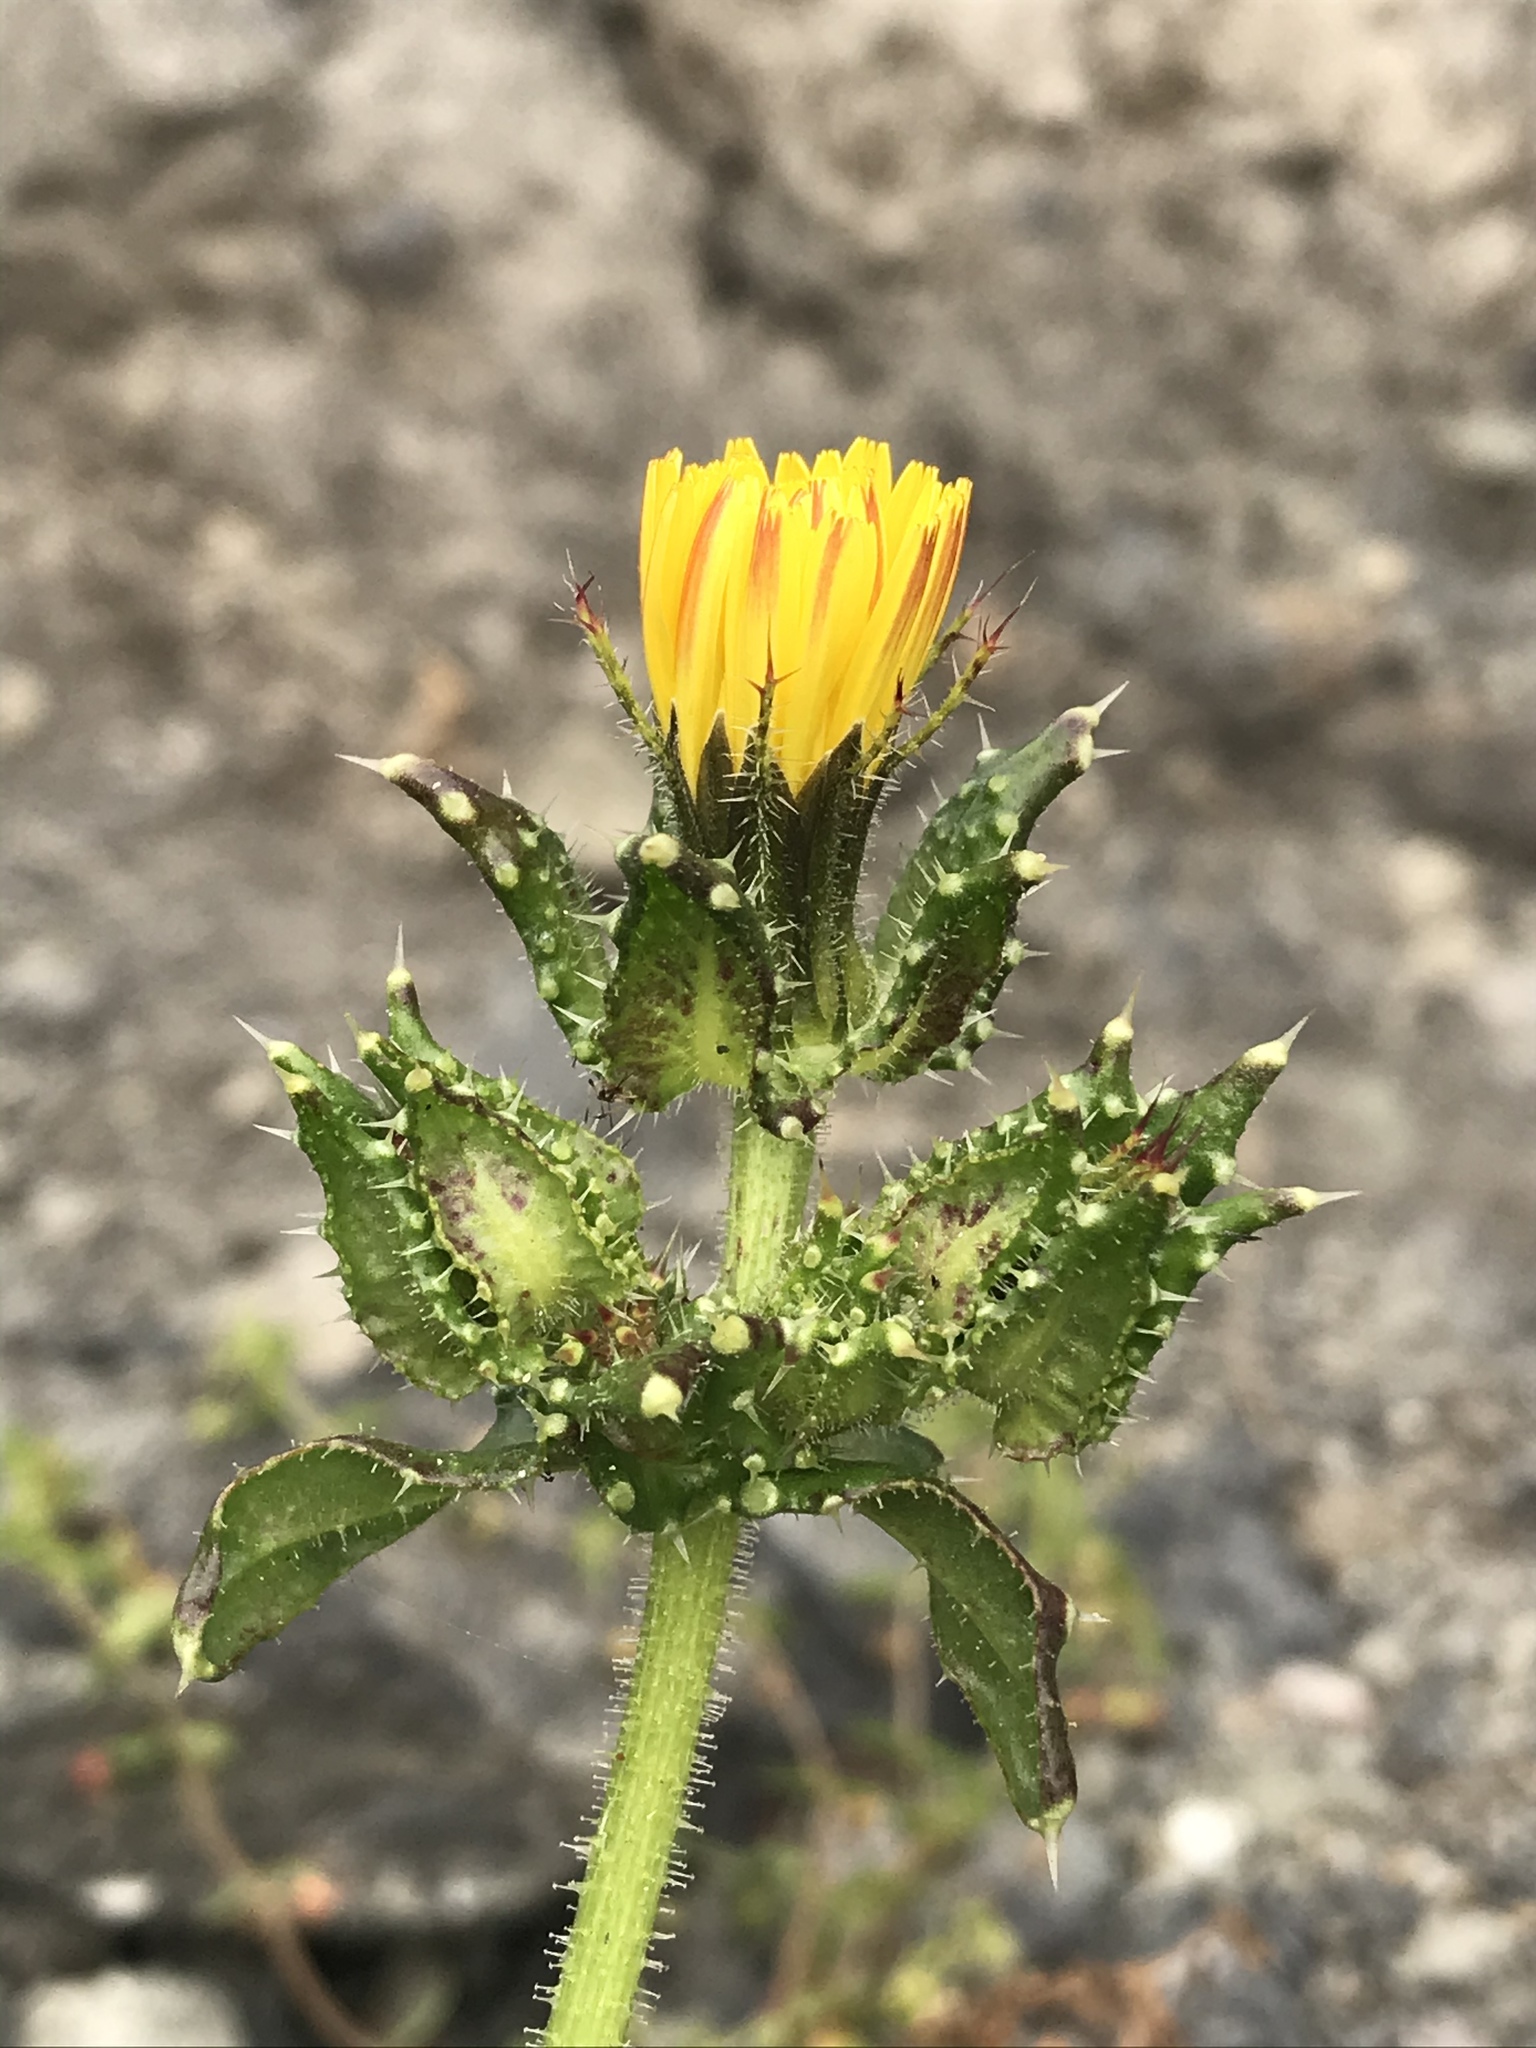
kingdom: Plantae
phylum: Tracheophyta
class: Magnoliopsida
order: Asterales
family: Asteraceae
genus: Helminthotheca
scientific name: Helminthotheca echioides
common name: Ox-tongue
